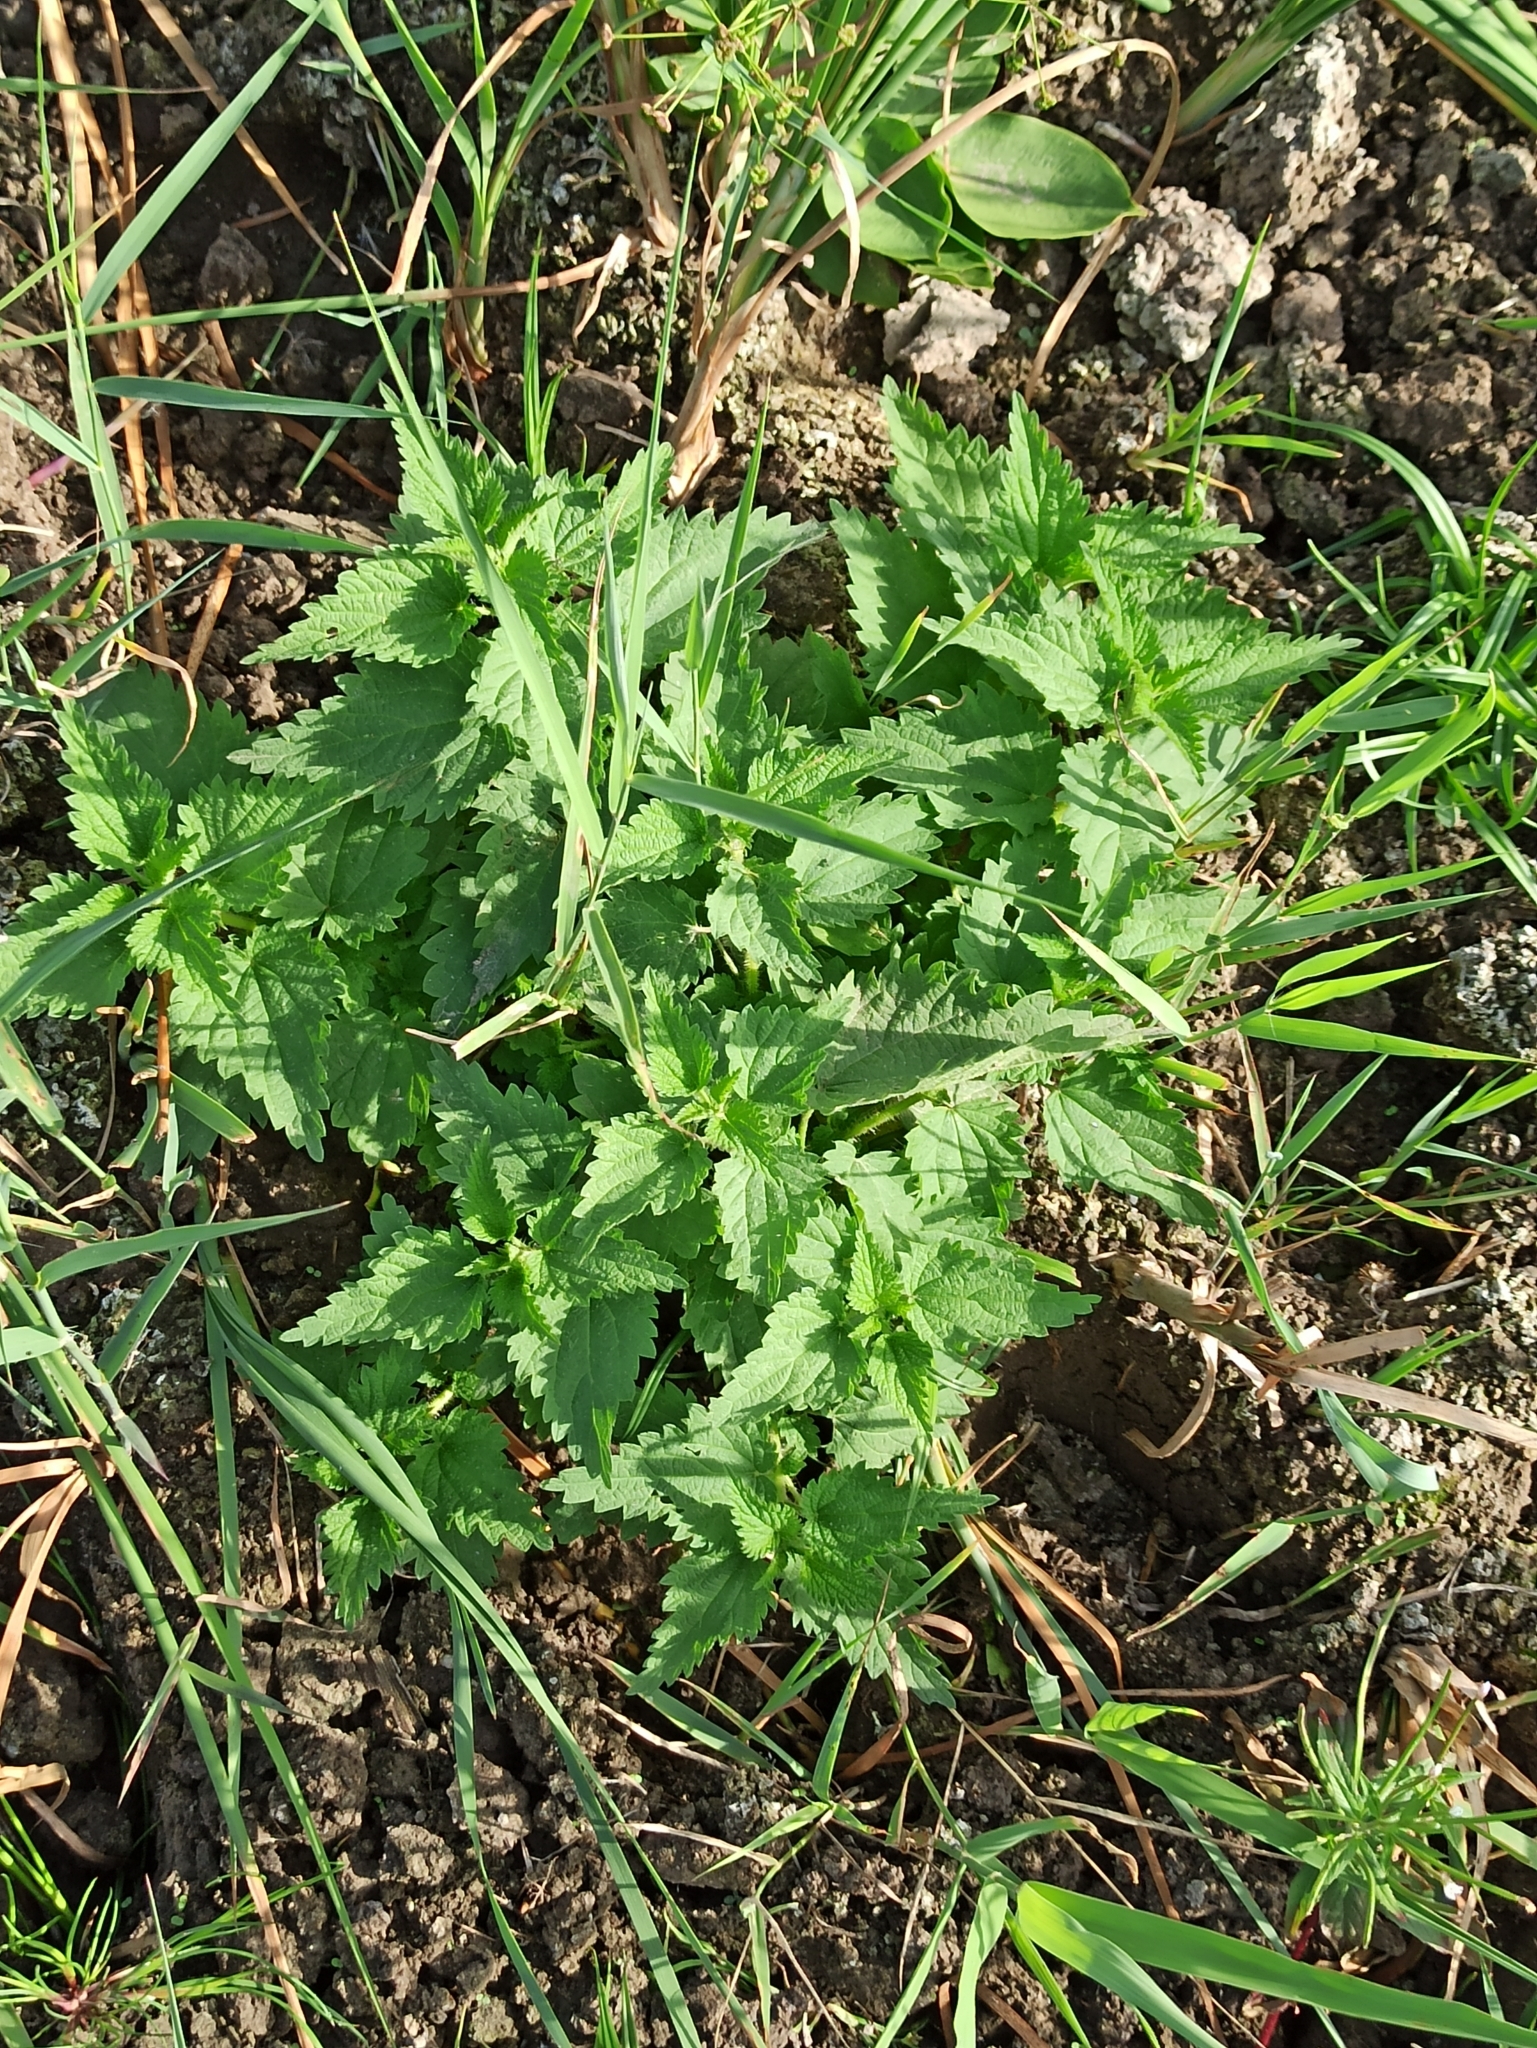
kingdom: Plantae
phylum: Tracheophyta
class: Magnoliopsida
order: Rosales
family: Urticaceae
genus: Urtica
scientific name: Urtica dioica
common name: Common nettle
